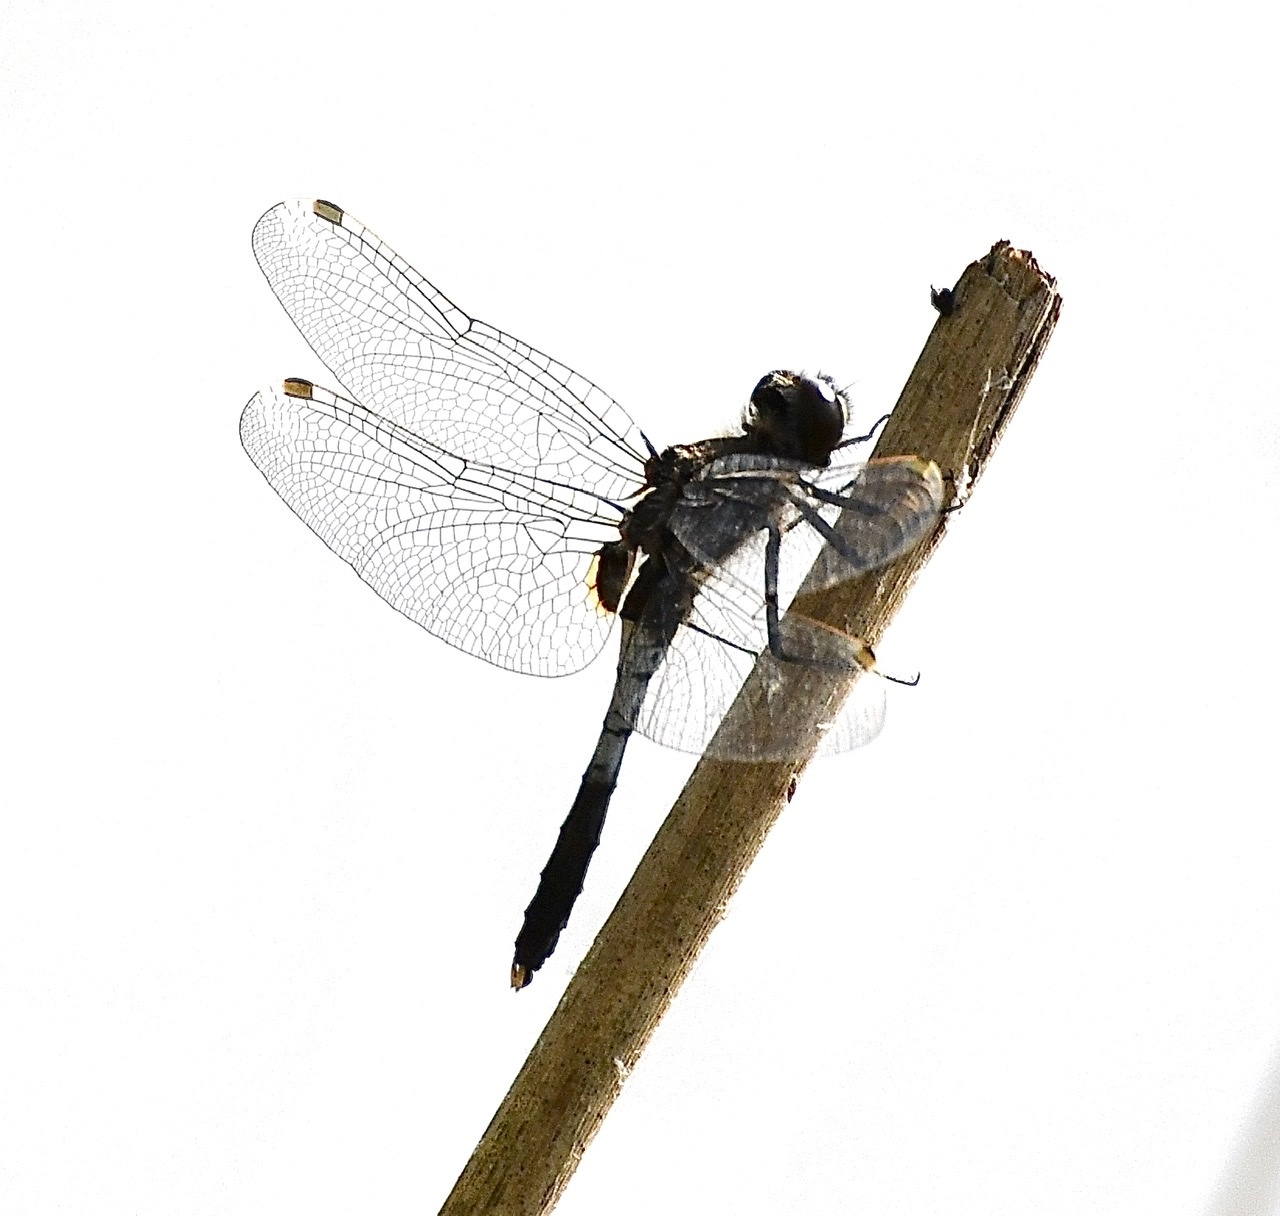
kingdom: Animalia
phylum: Arthropoda
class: Insecta
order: Odonata
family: Libellulidae
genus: Leucorrhinia
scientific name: Leucorrhinia caudalis
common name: Lilypad whiteface
